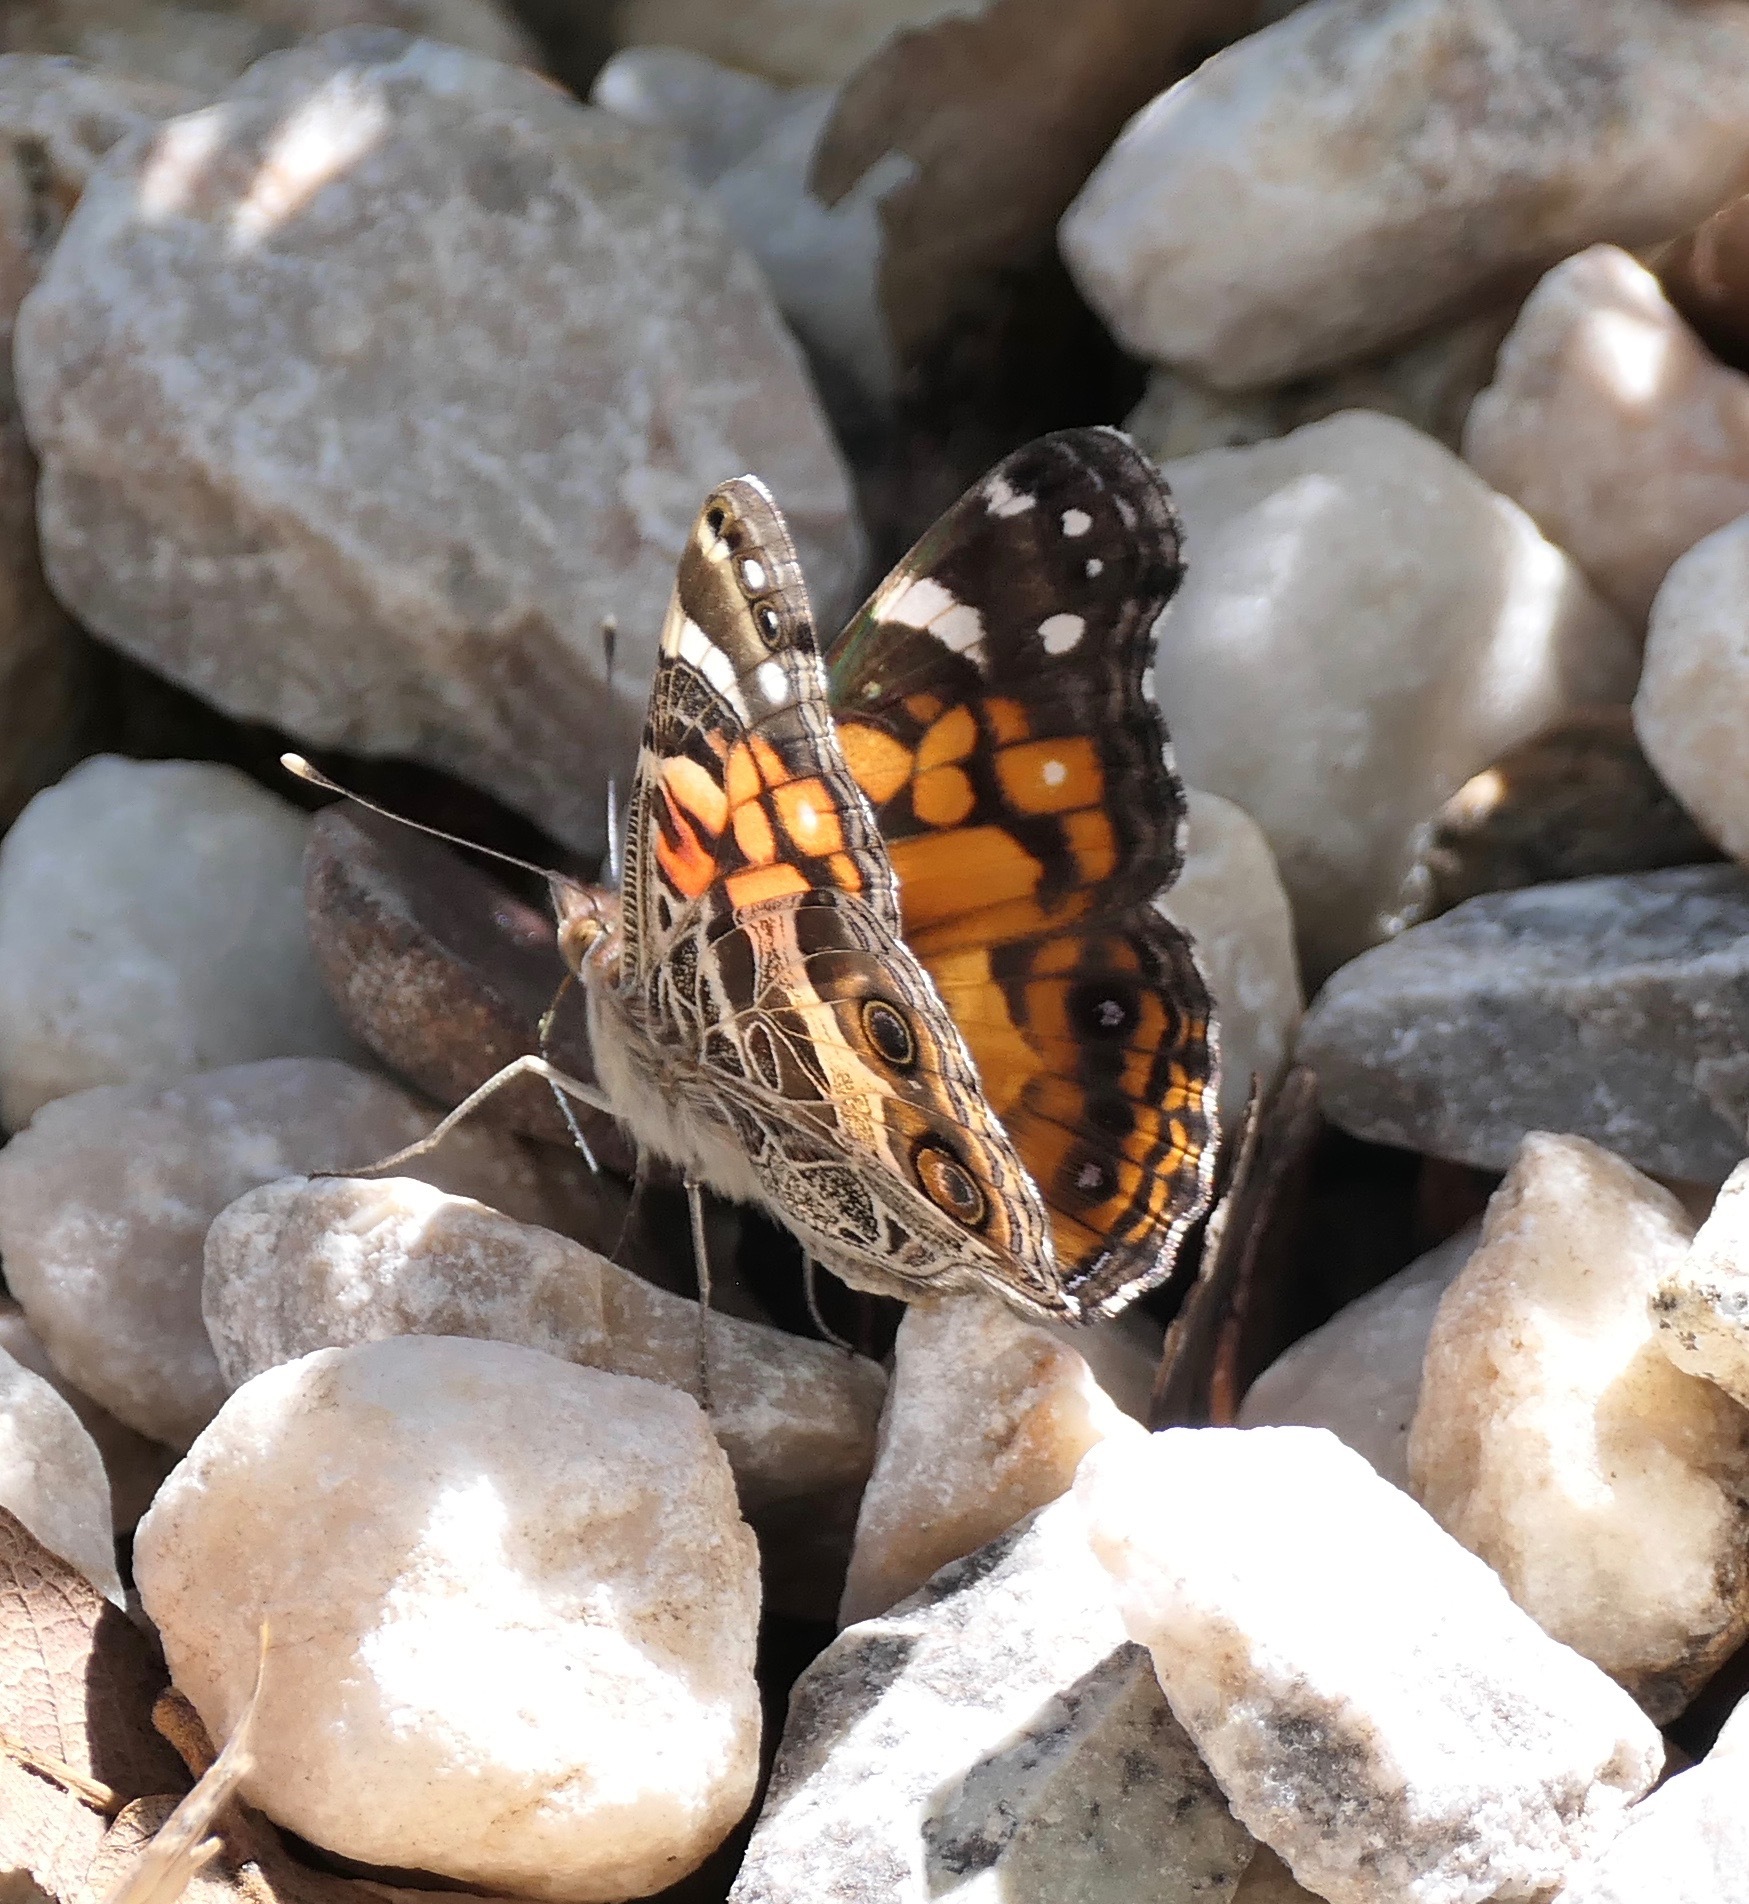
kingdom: Animalia
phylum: Arthropoda
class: Insecta
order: Lepidoptera
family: Nymphalidae
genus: Vanessa
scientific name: Vanessa virginiensis
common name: American lady
